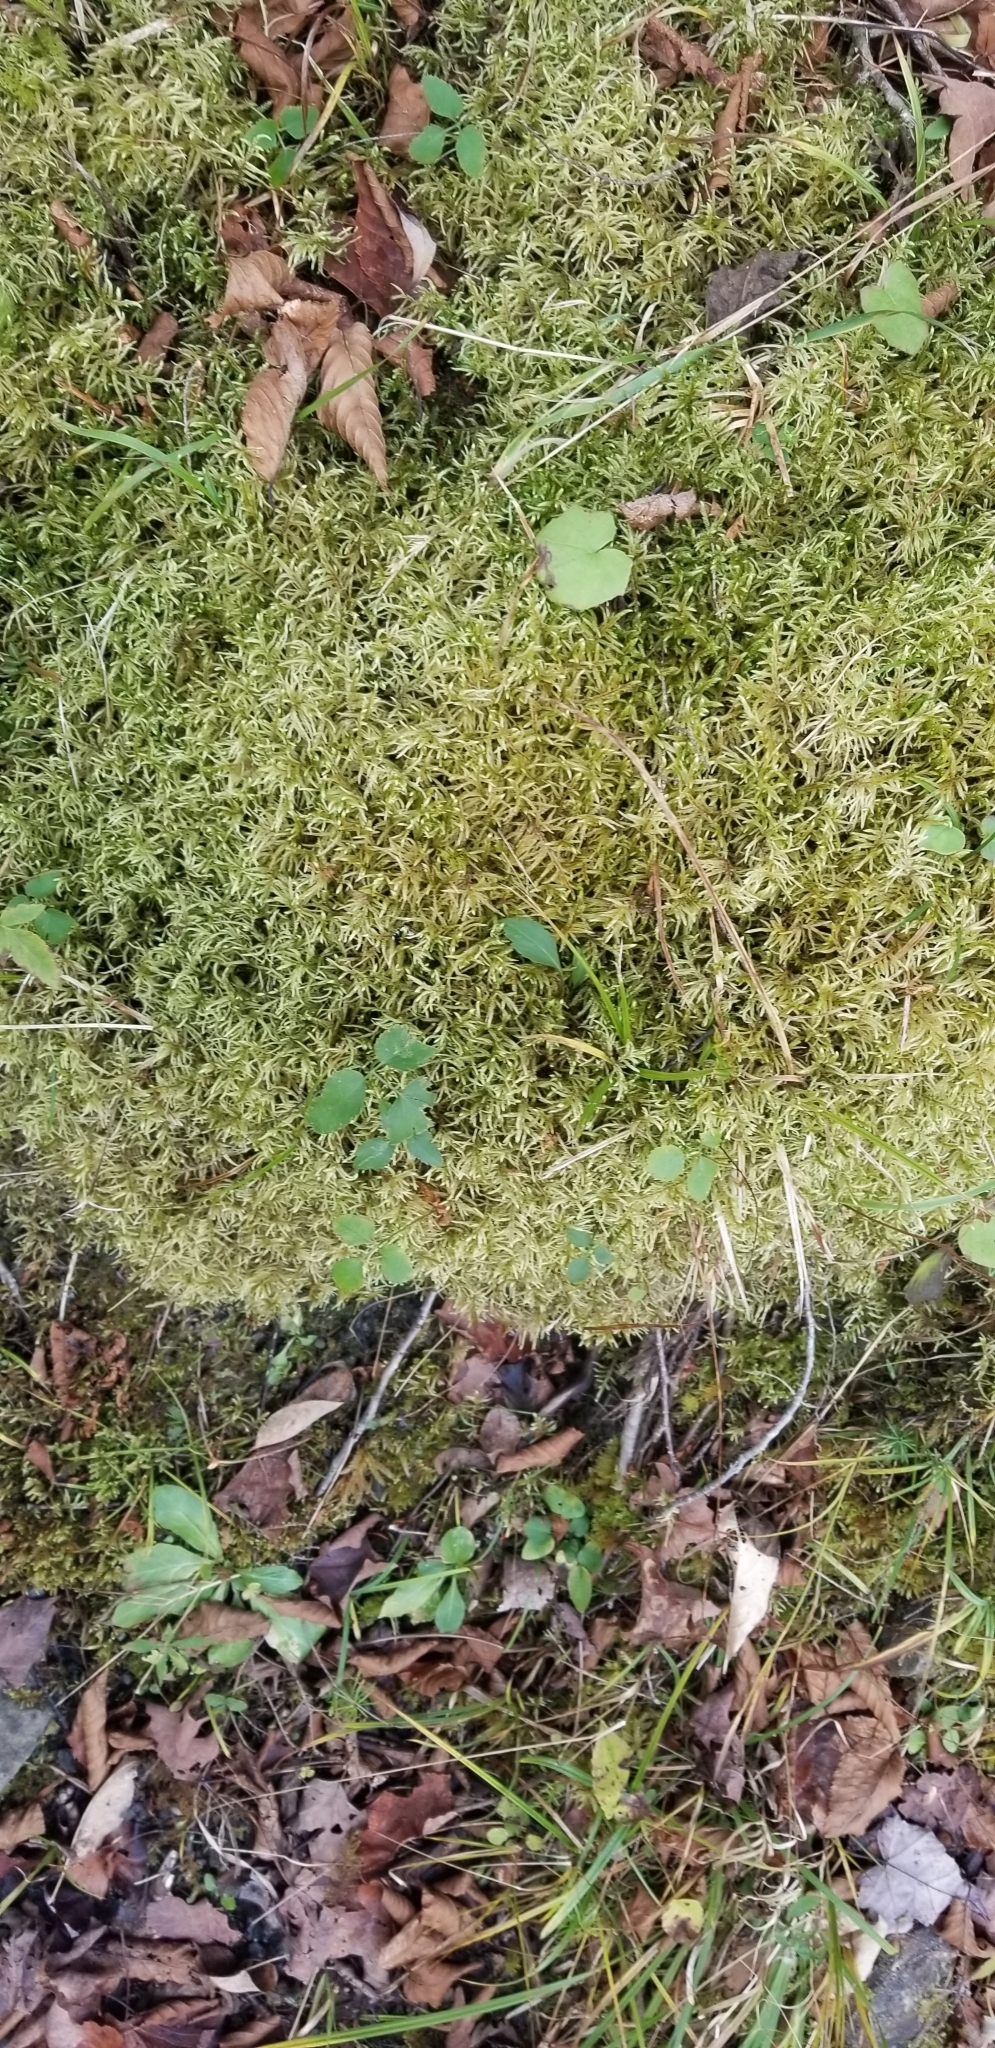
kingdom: Plantae
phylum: Bryophyta
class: Bryopsida
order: Hypnales
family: Hylocomiaceae
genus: Pleurozium
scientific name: Pleurozium schreberi
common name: Red-stemmed feather moss
